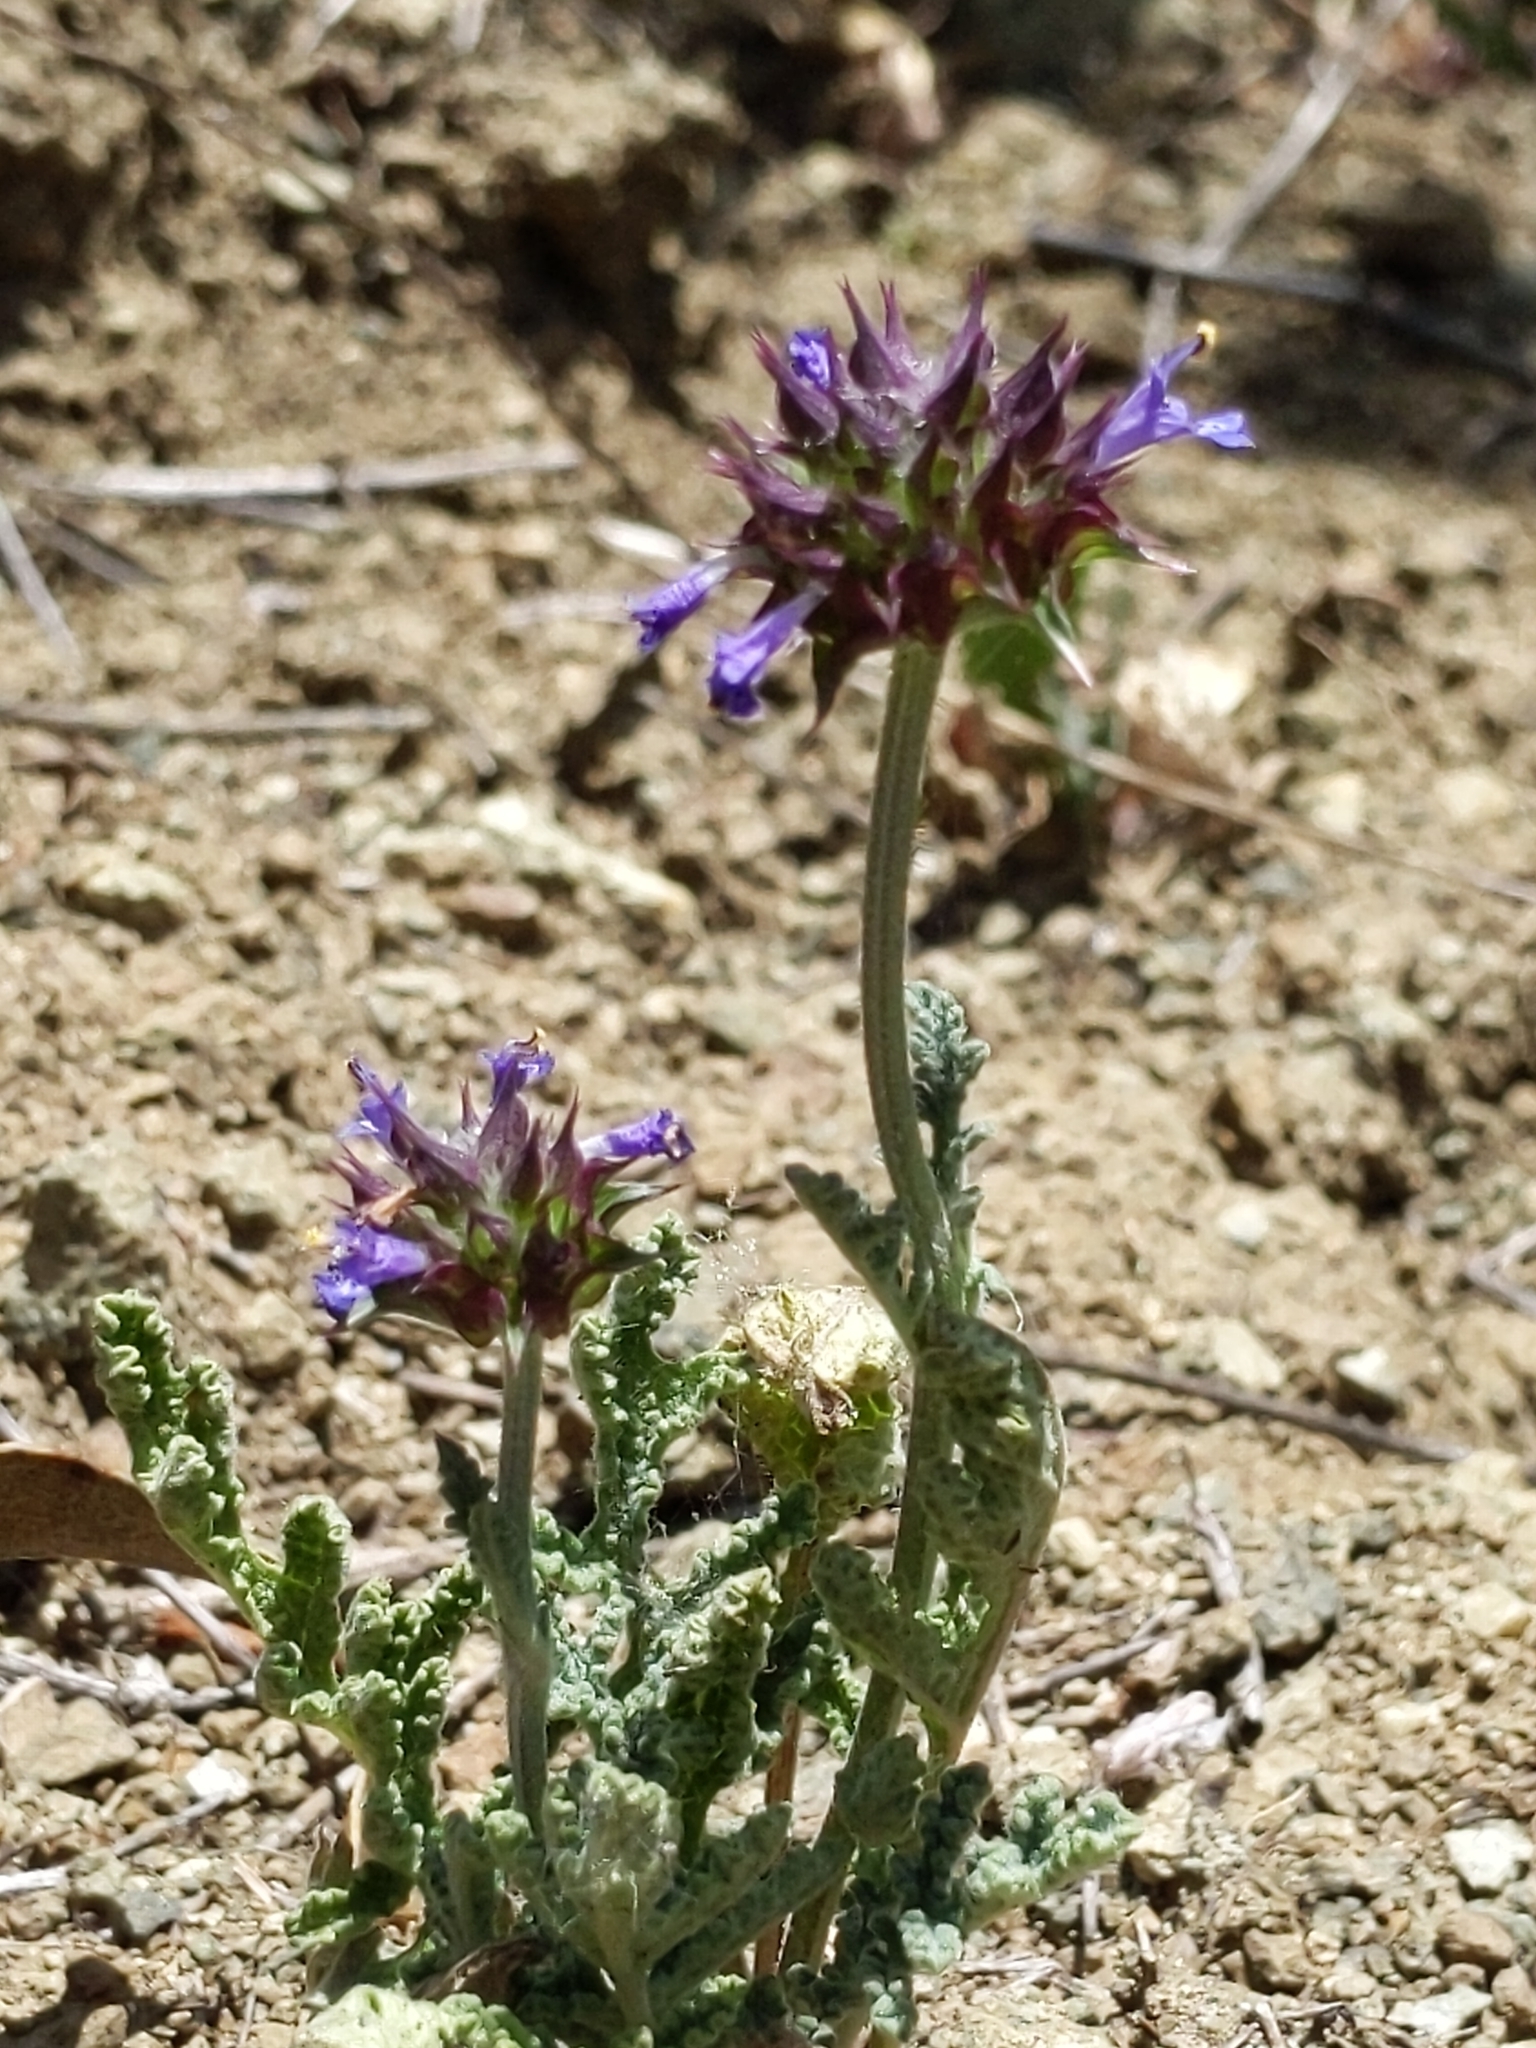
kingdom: Plantae
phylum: Tracheophyta
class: Magnoliopsida
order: Lamiales
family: Lamiaceae
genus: Salvia
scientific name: Salvia columbariae
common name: Chia
